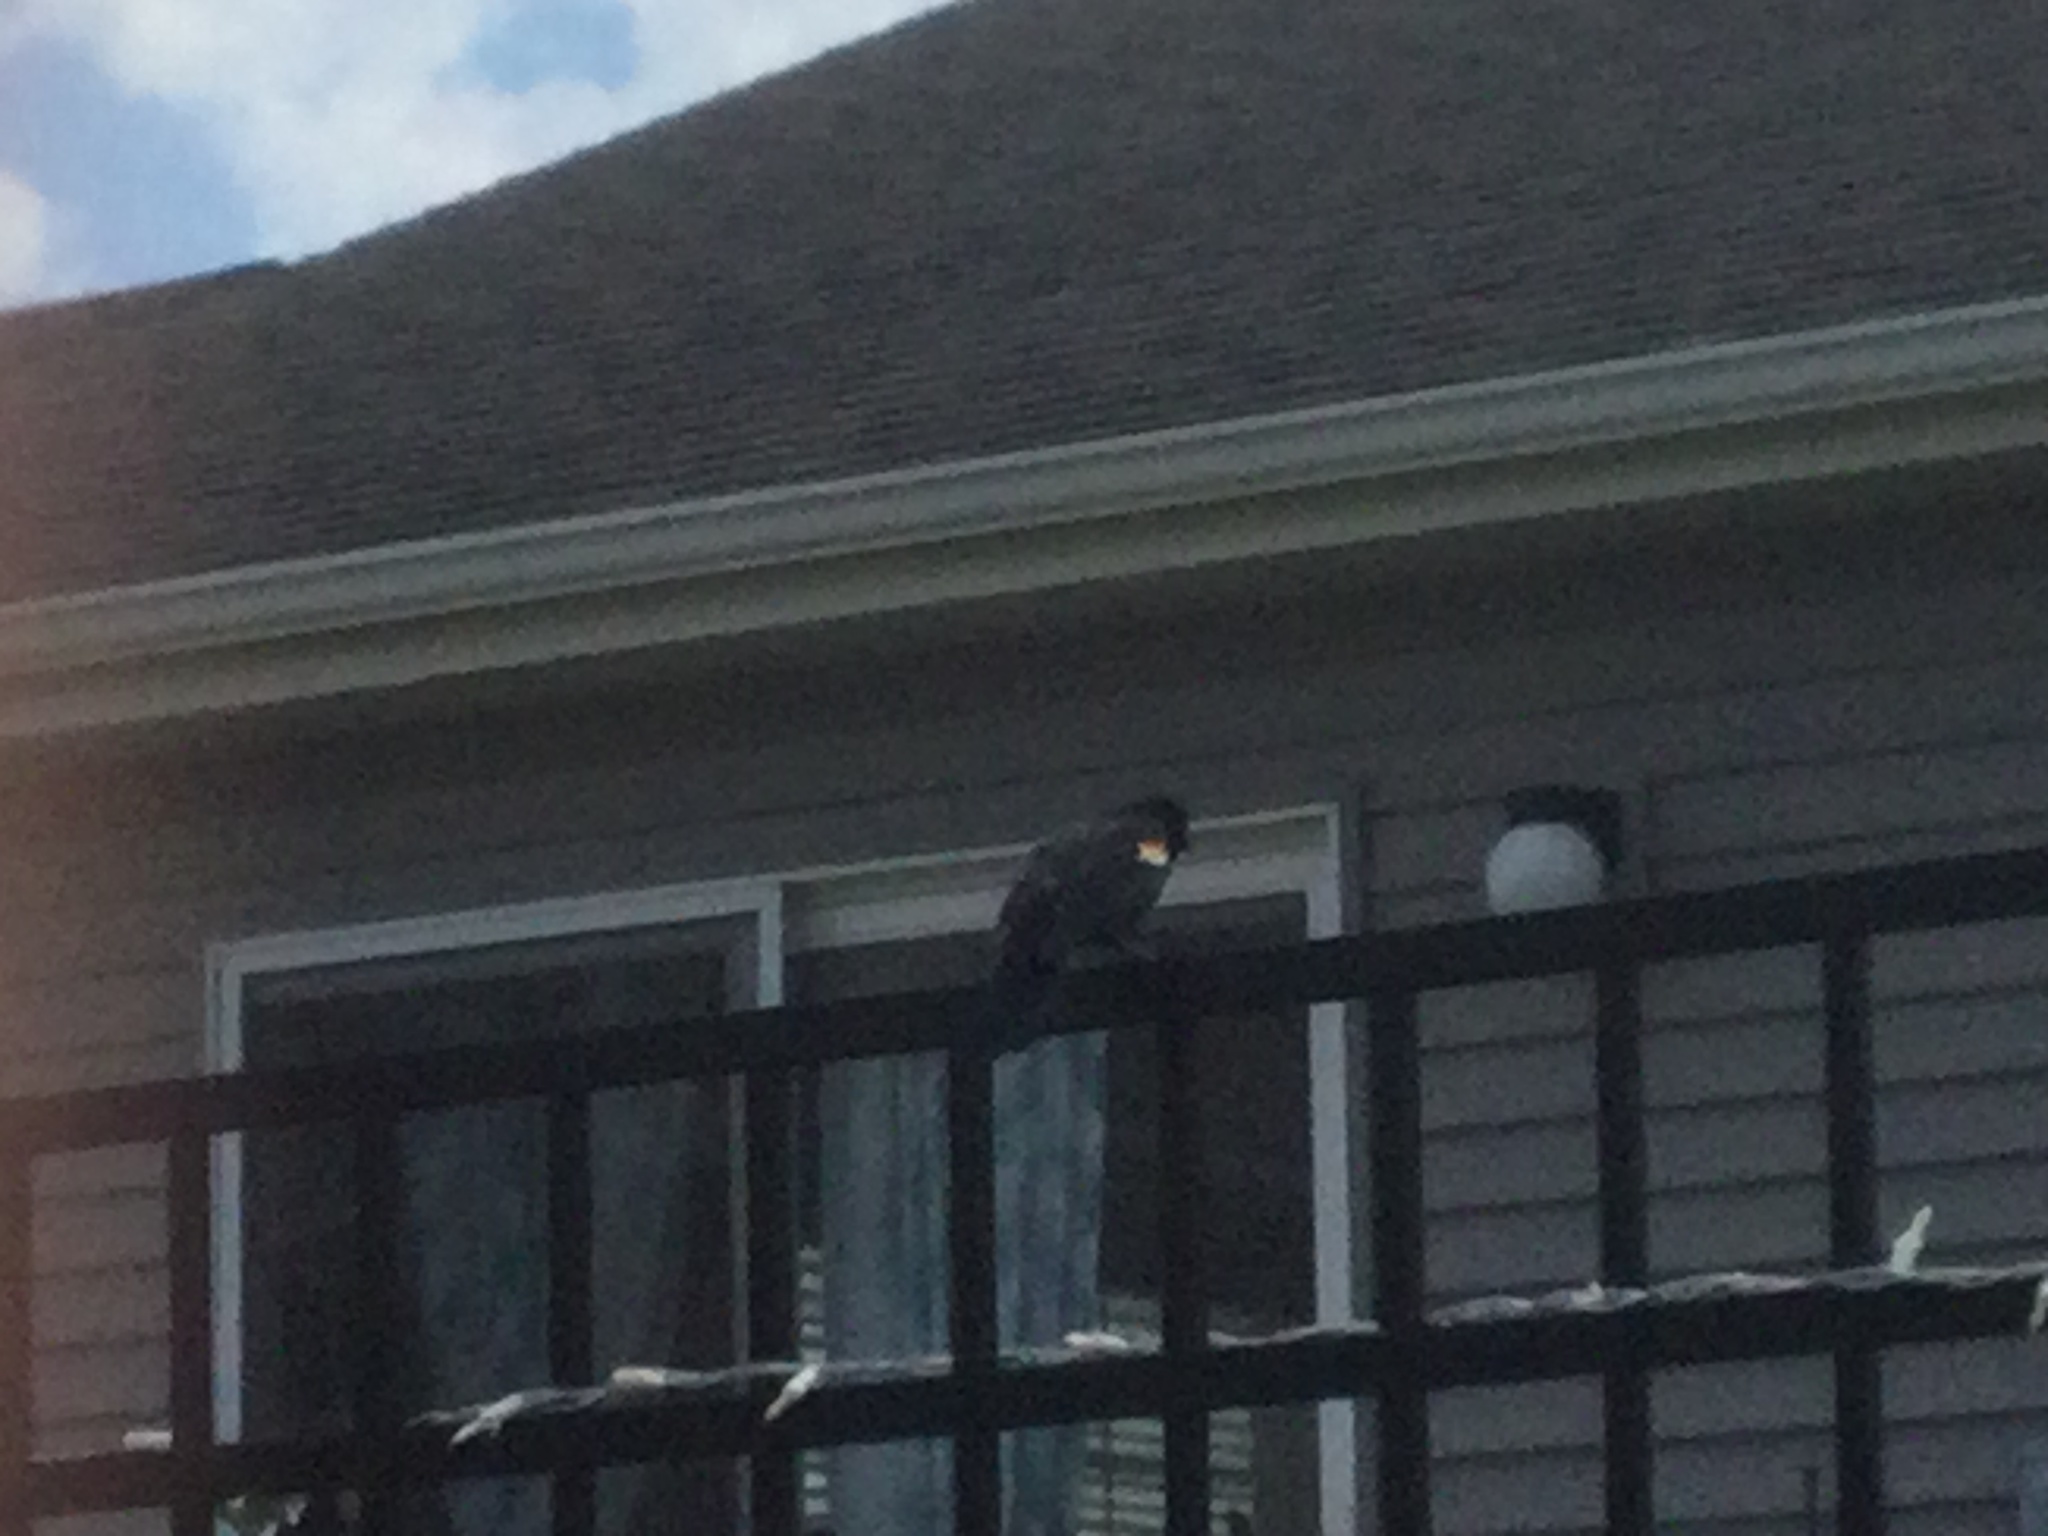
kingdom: Animalia
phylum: Chordata
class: Aves
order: Passeriformes
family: Icteridae
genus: Agelaius
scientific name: Agelaius phoeniceus
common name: Red-winged blackbird
